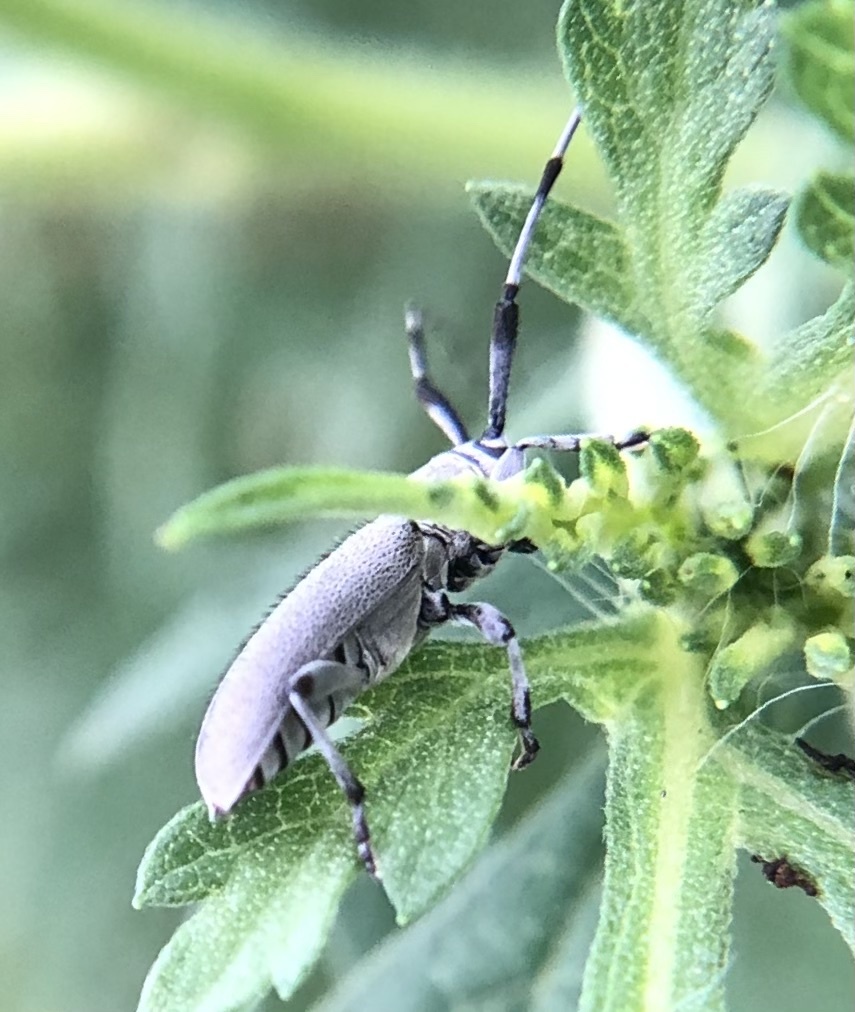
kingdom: Animalia
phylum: Arthropoda
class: Insecta
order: Coleoptera
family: Cerambycidae
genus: Dectes
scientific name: Dectes texanus
